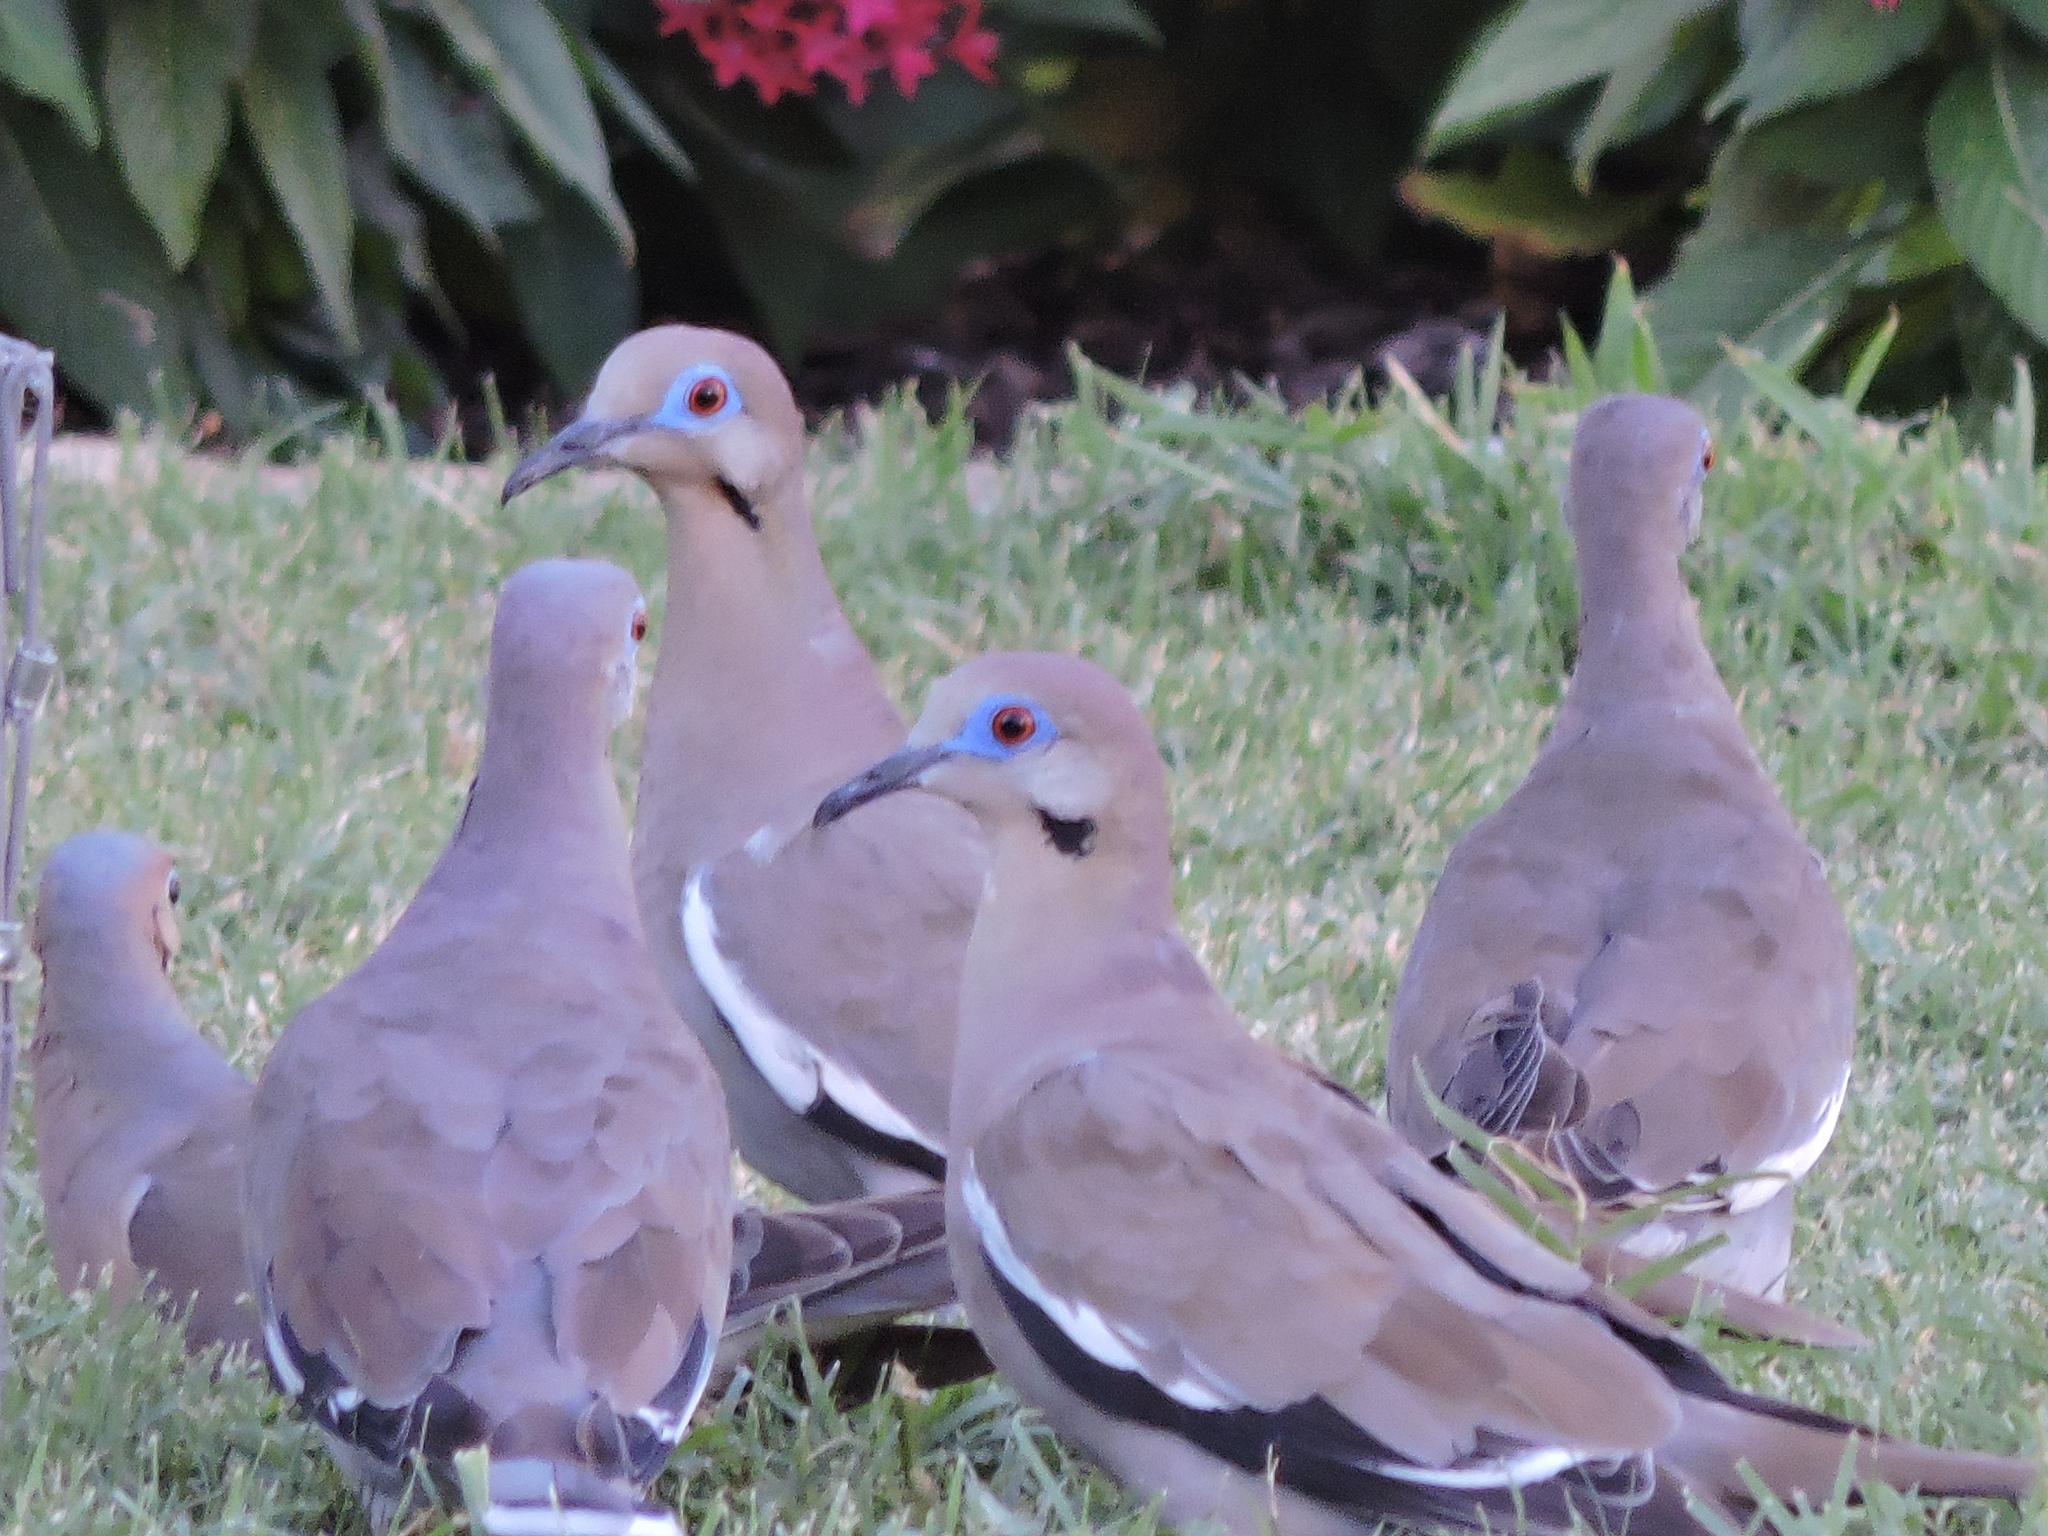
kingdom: Animalia
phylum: Chordata
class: Aves
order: Columbiformes
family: Columbidae
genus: Zenaida
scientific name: Zenaida asiatica
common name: White-winged dove
